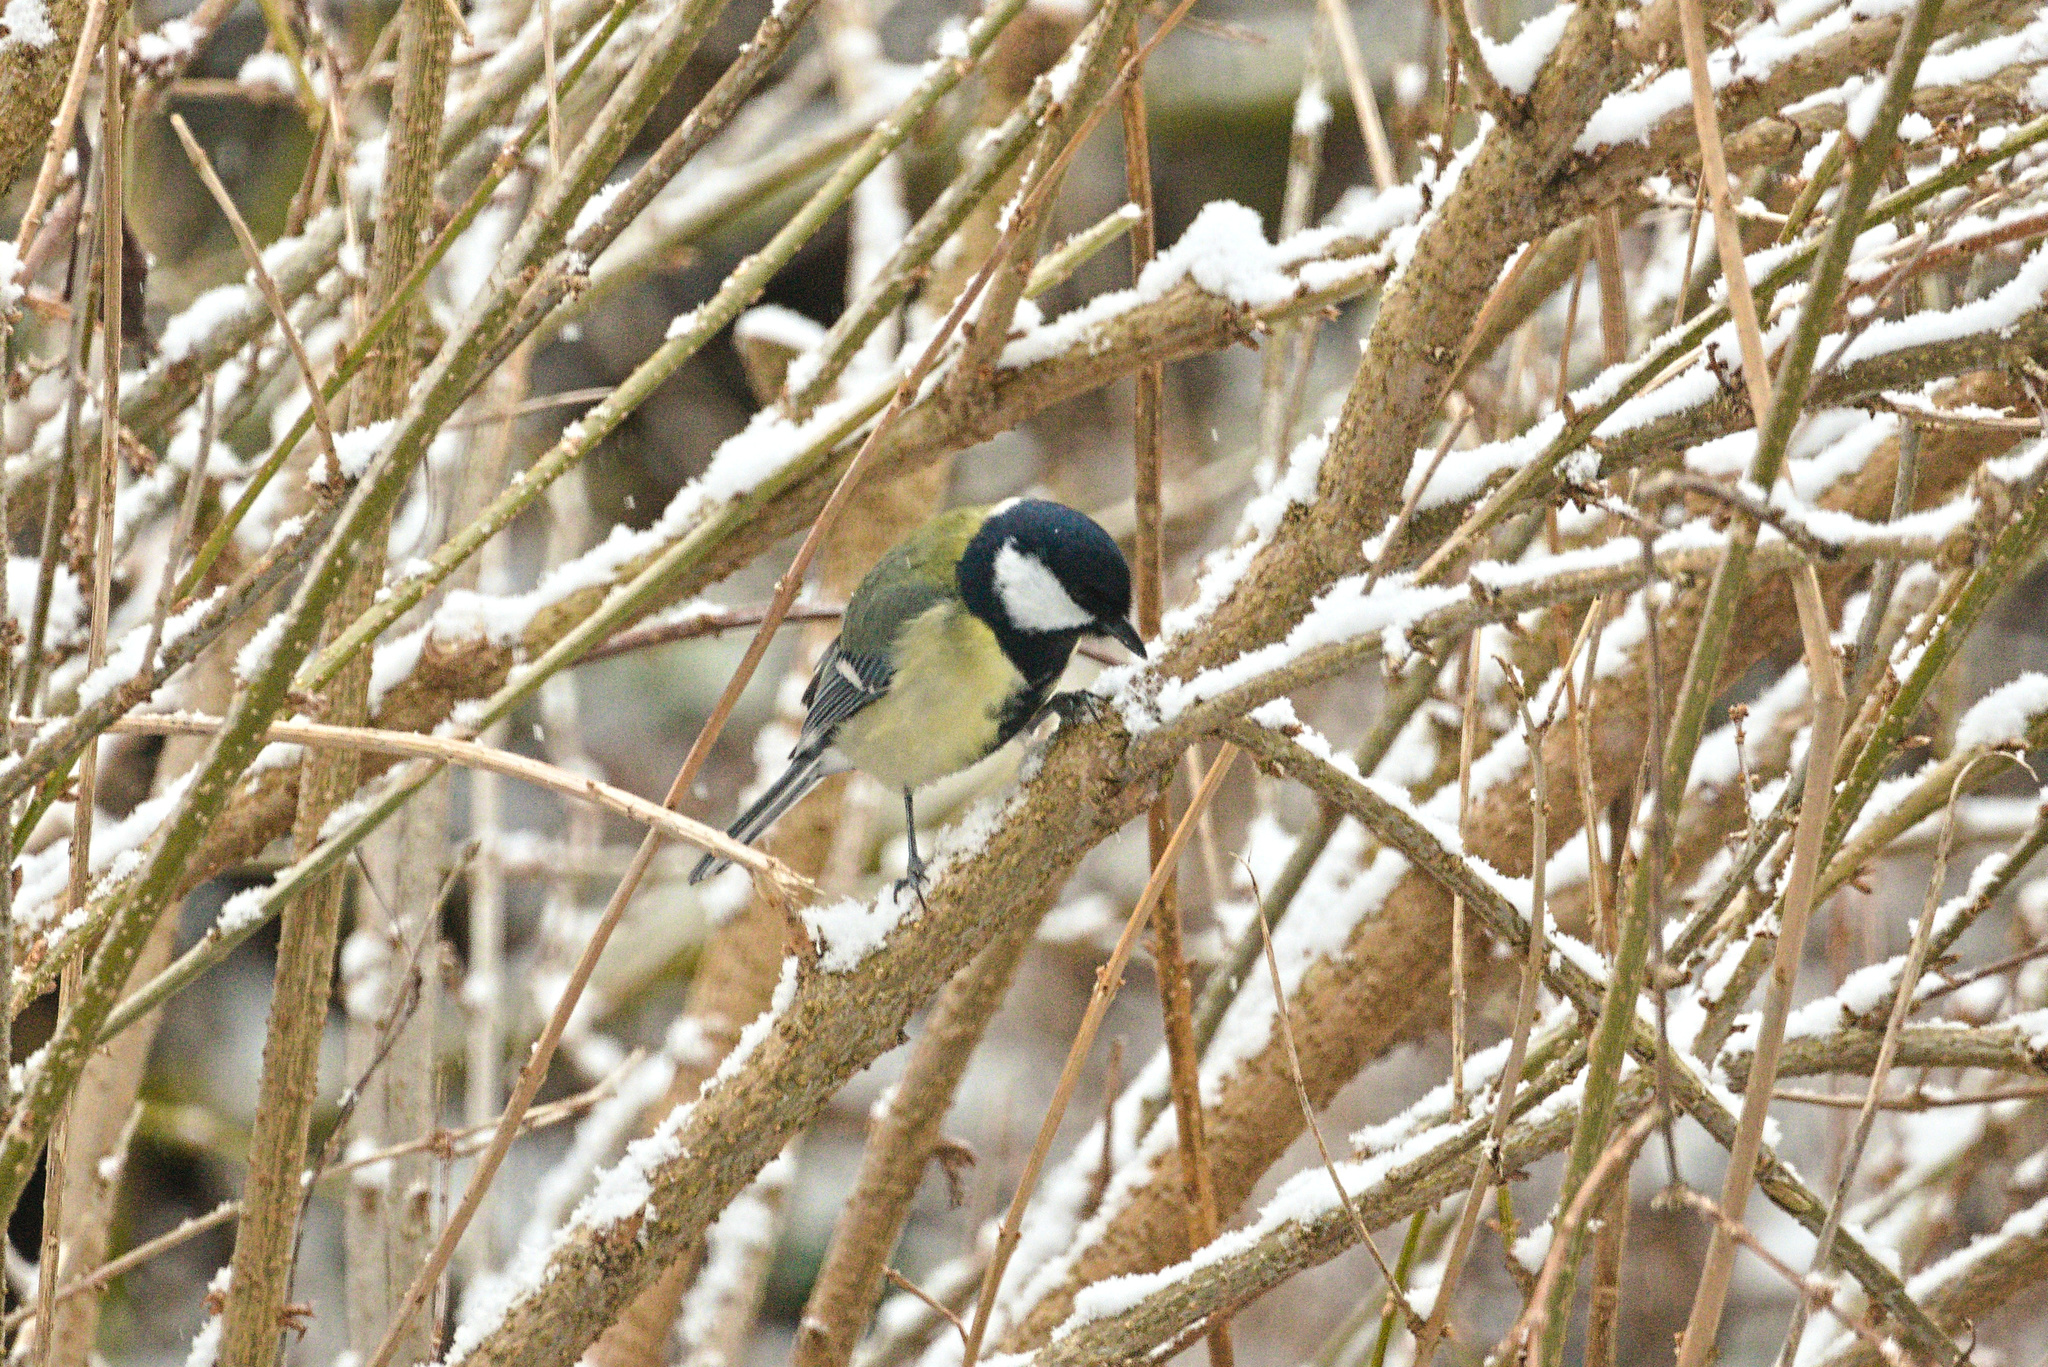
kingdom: Animalia
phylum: Chordata
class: Aves
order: Passeriformes
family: Paridae
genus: Parus
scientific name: Parus major
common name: Great tit
